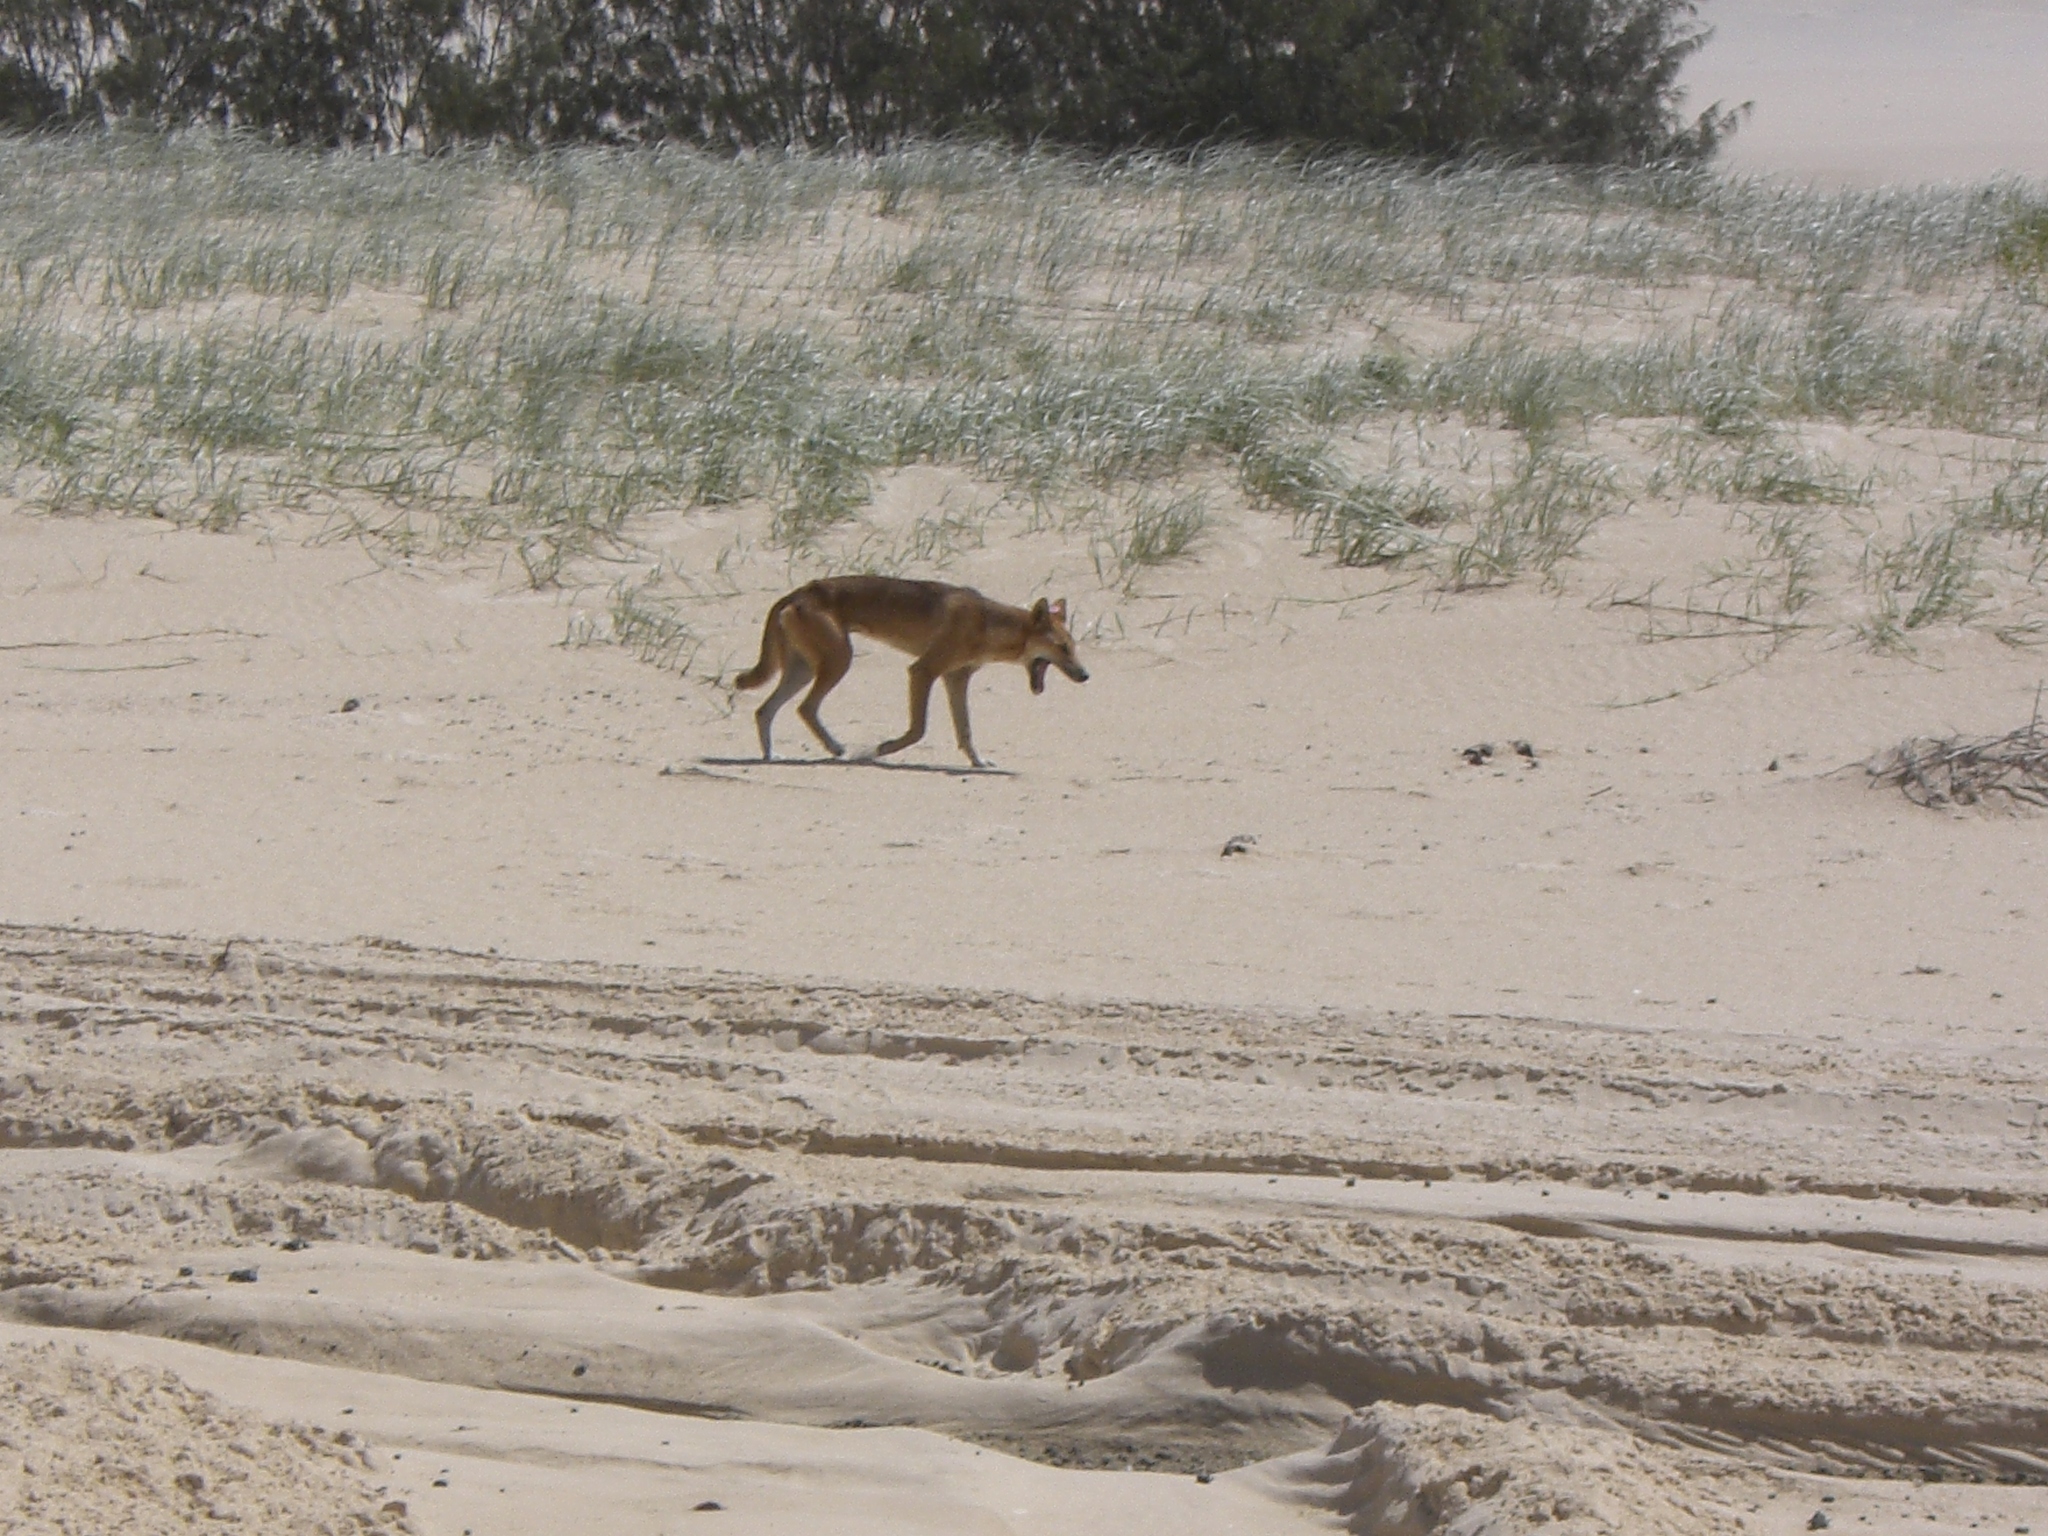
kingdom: Animalia
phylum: Chordata
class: Mammalia
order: Carnivora
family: Canidae
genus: Canis
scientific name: Canis lupus
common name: Gray wolf
